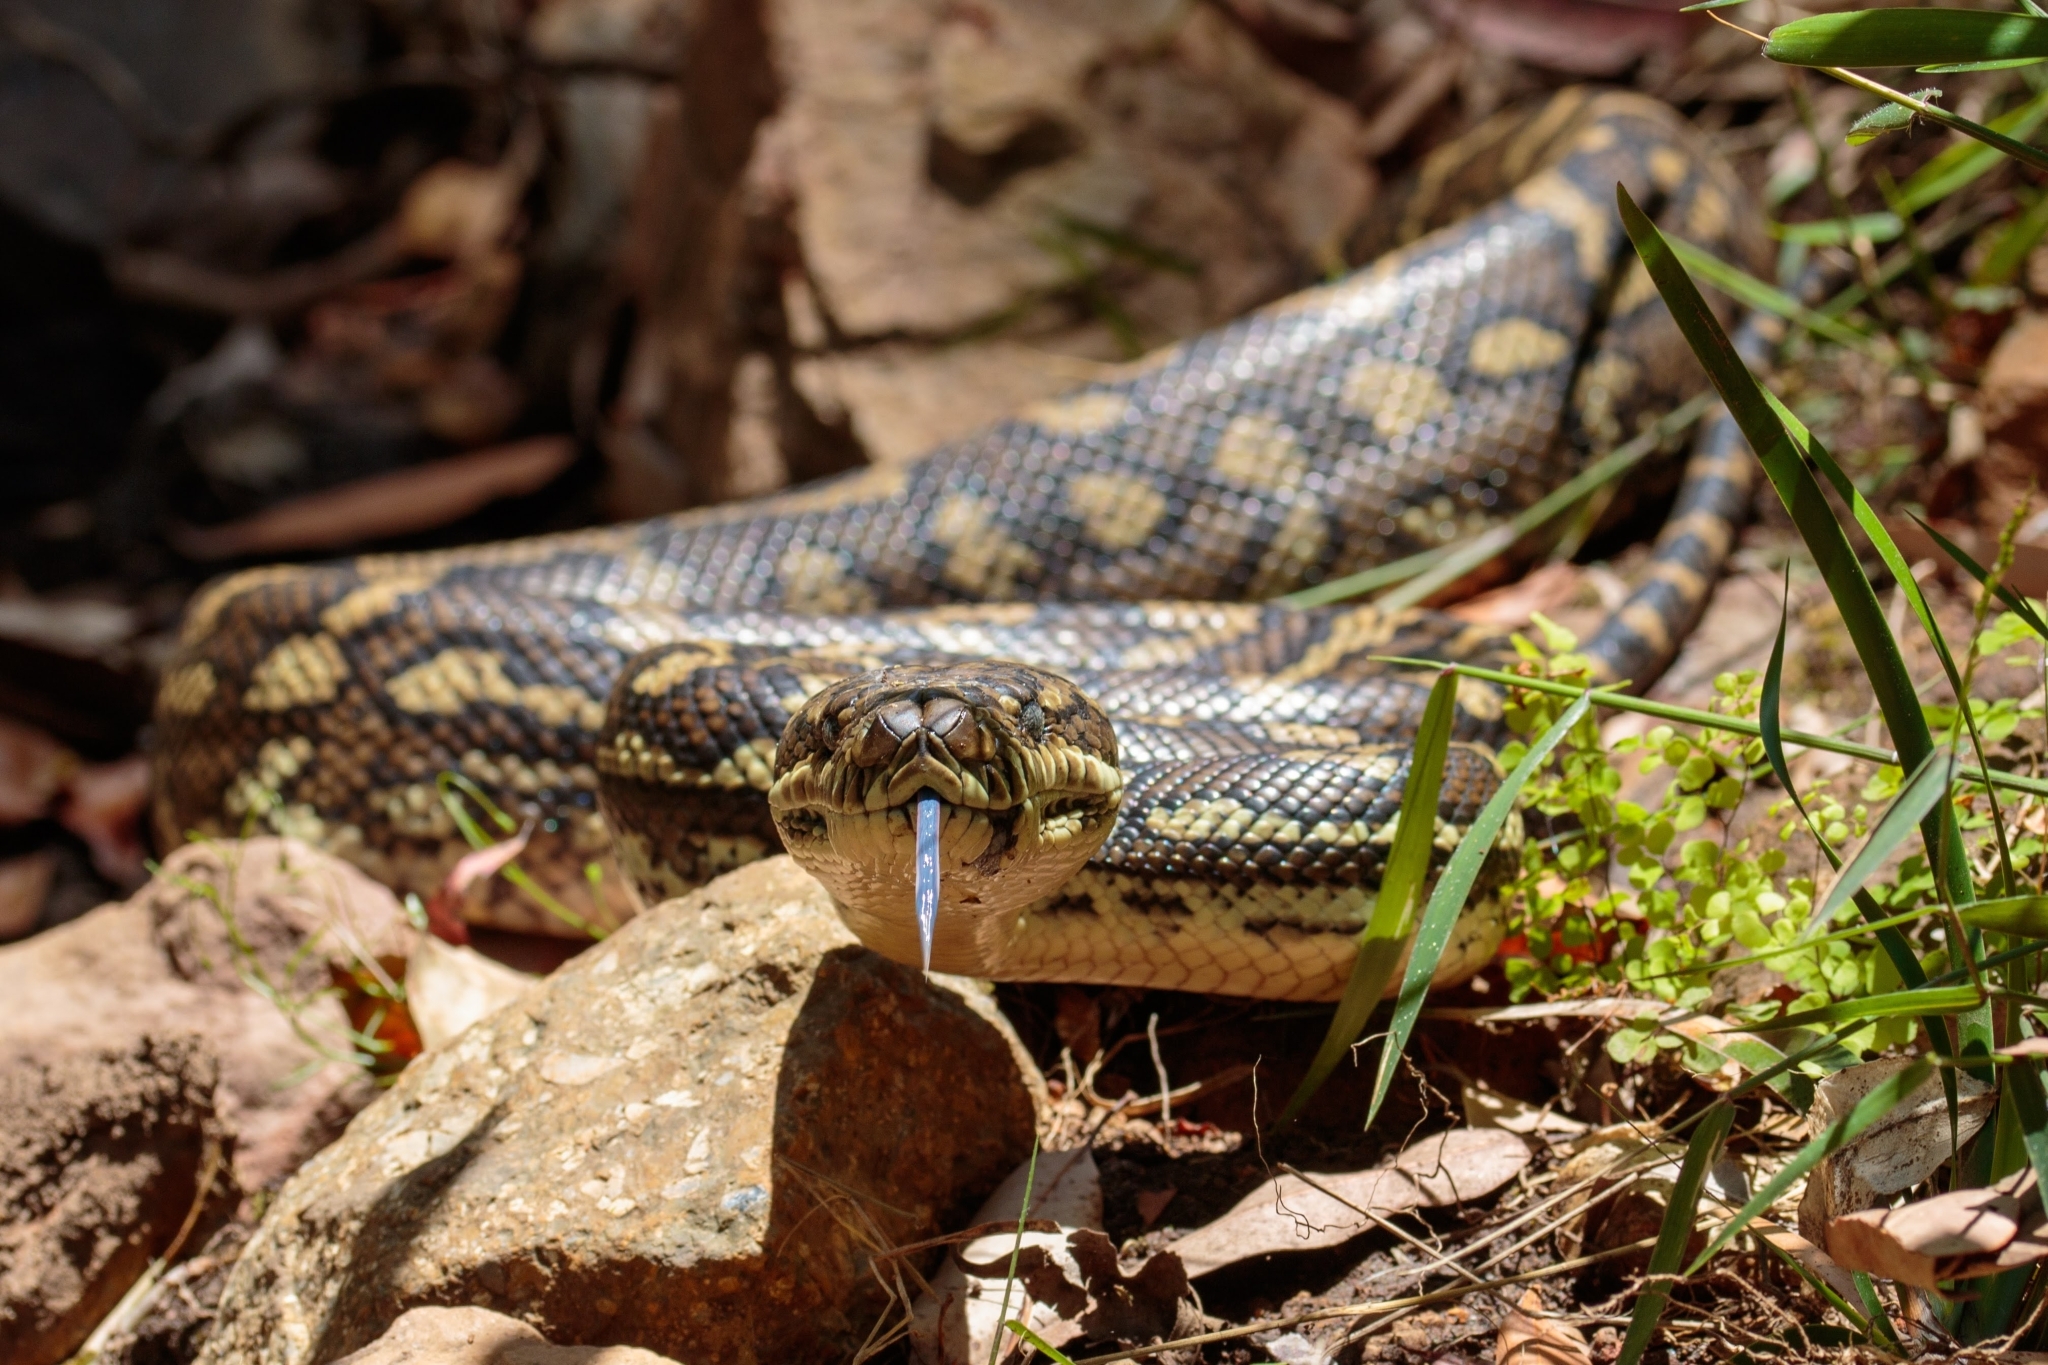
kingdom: Animalia
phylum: Chordata
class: Squamata
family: Pythonidae
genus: Morelia
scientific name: Morelia spilota
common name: Carpet python
